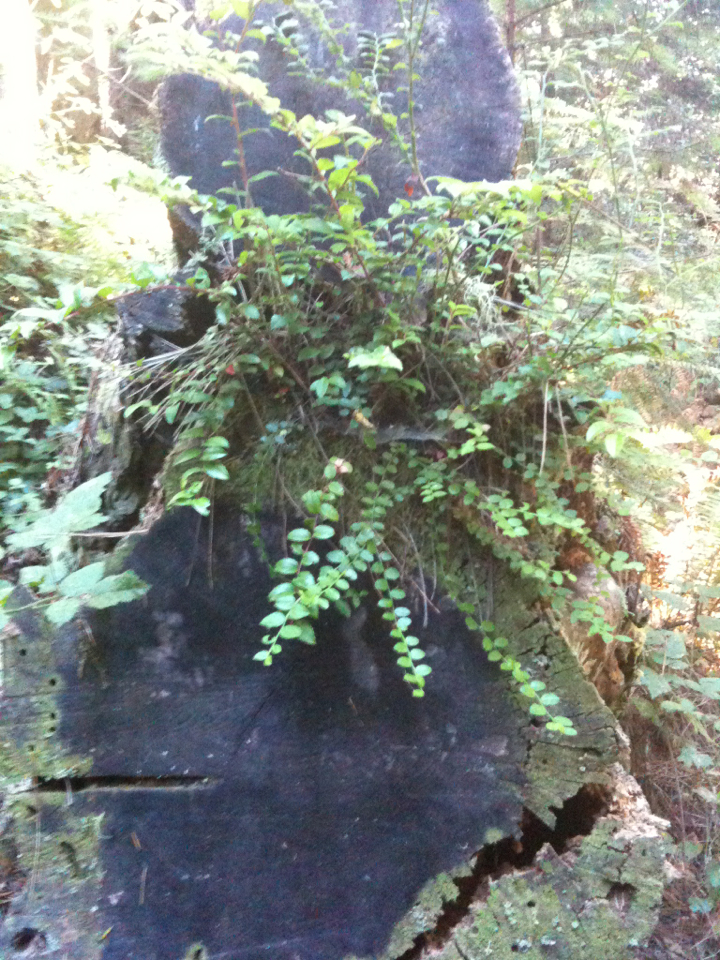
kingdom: Plantae
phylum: Tracheophyta
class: Magnoliopsida
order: Ericales
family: Ericaceae
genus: Vaccinium
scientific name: Vaccinium ovatum
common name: California-huckleberry
